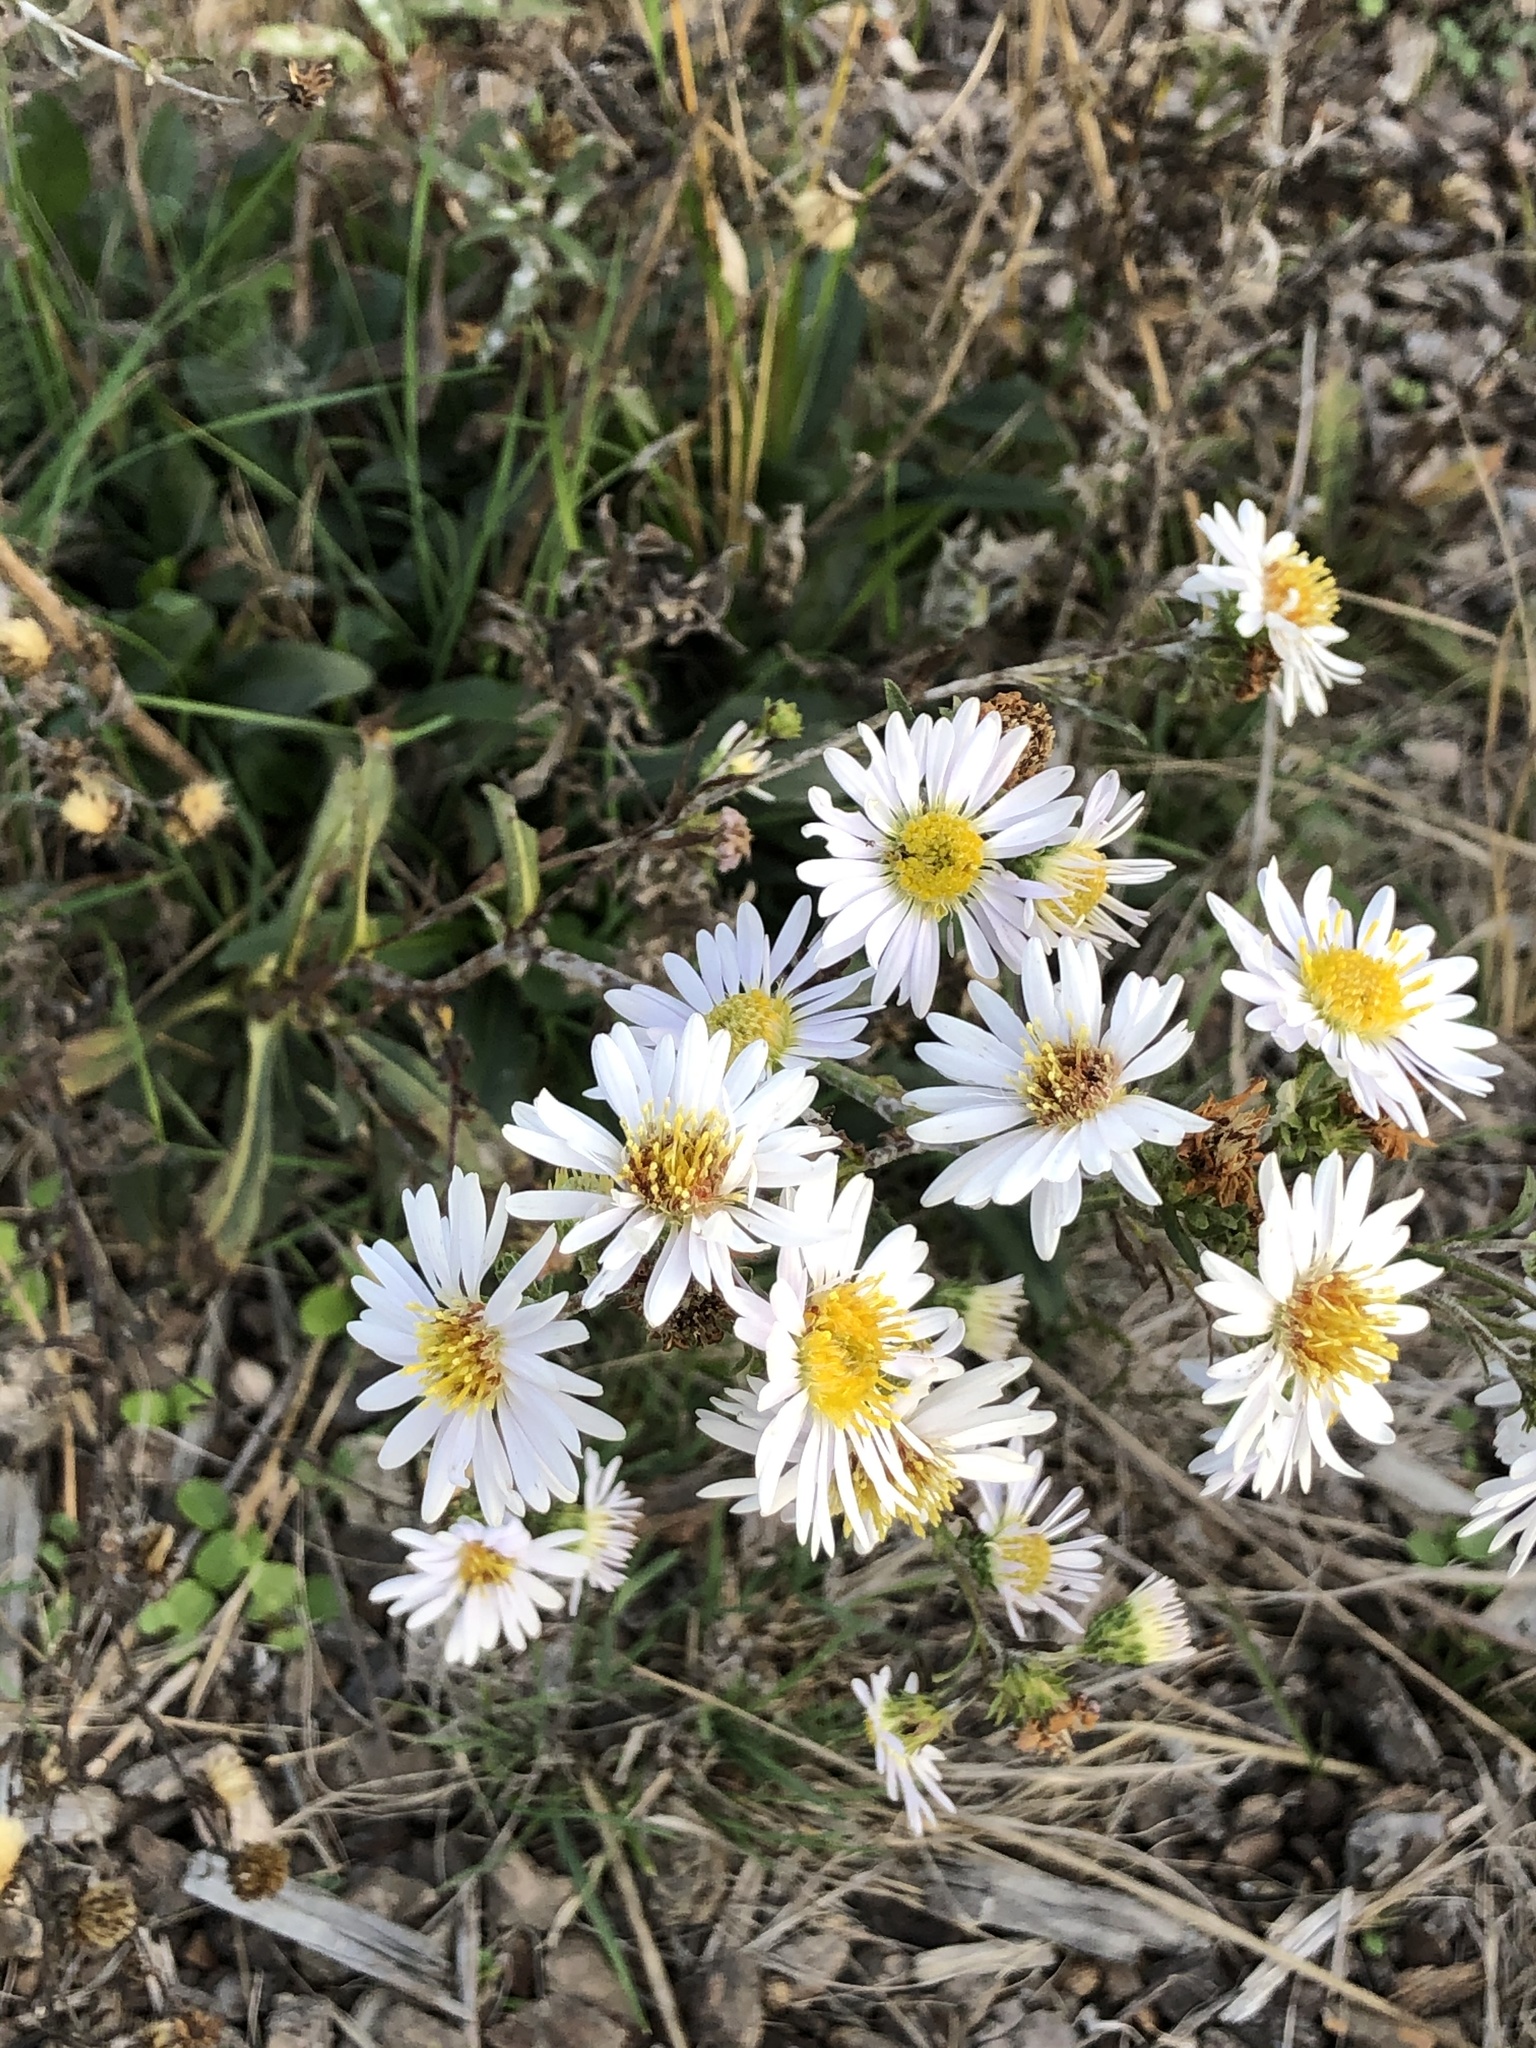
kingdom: Plantae
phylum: Tracheophyta
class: Magnoliopsida
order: Asterales
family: Asteraceae
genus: Symphyotrichum
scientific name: Symphyotrichum chilense
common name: Pacific aster
